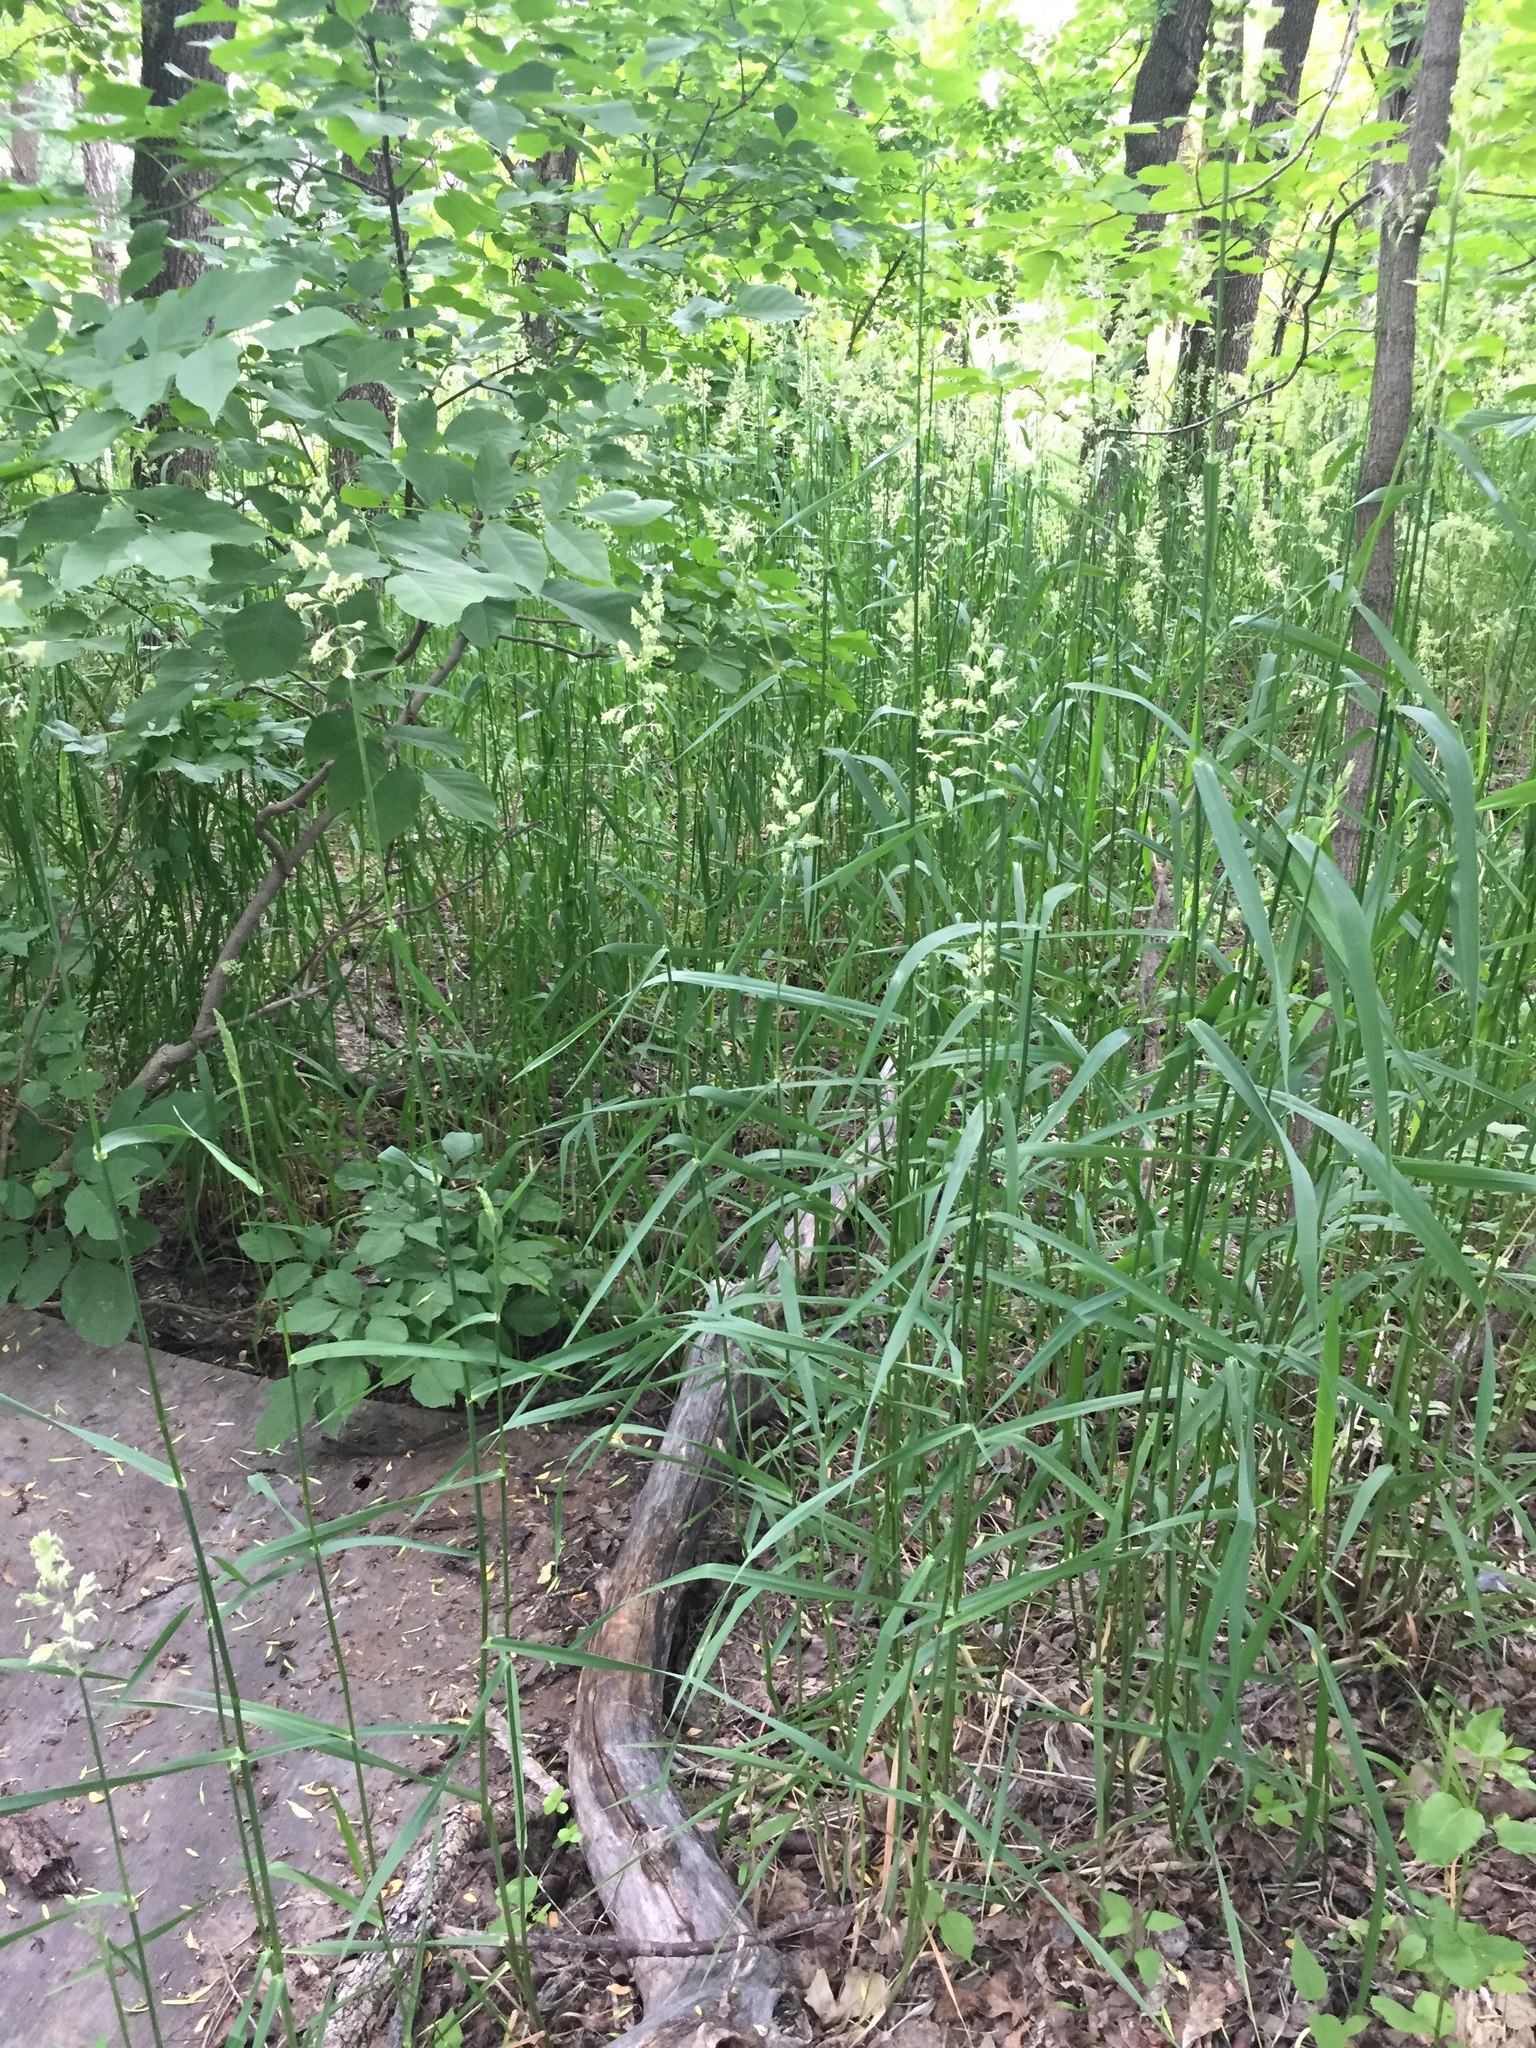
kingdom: Plantae
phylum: Tracheophyta
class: Liliopsida
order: Poales
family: Poaceae
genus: Phalaris
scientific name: Phalaris arundinacea
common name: Reed canary-grass
